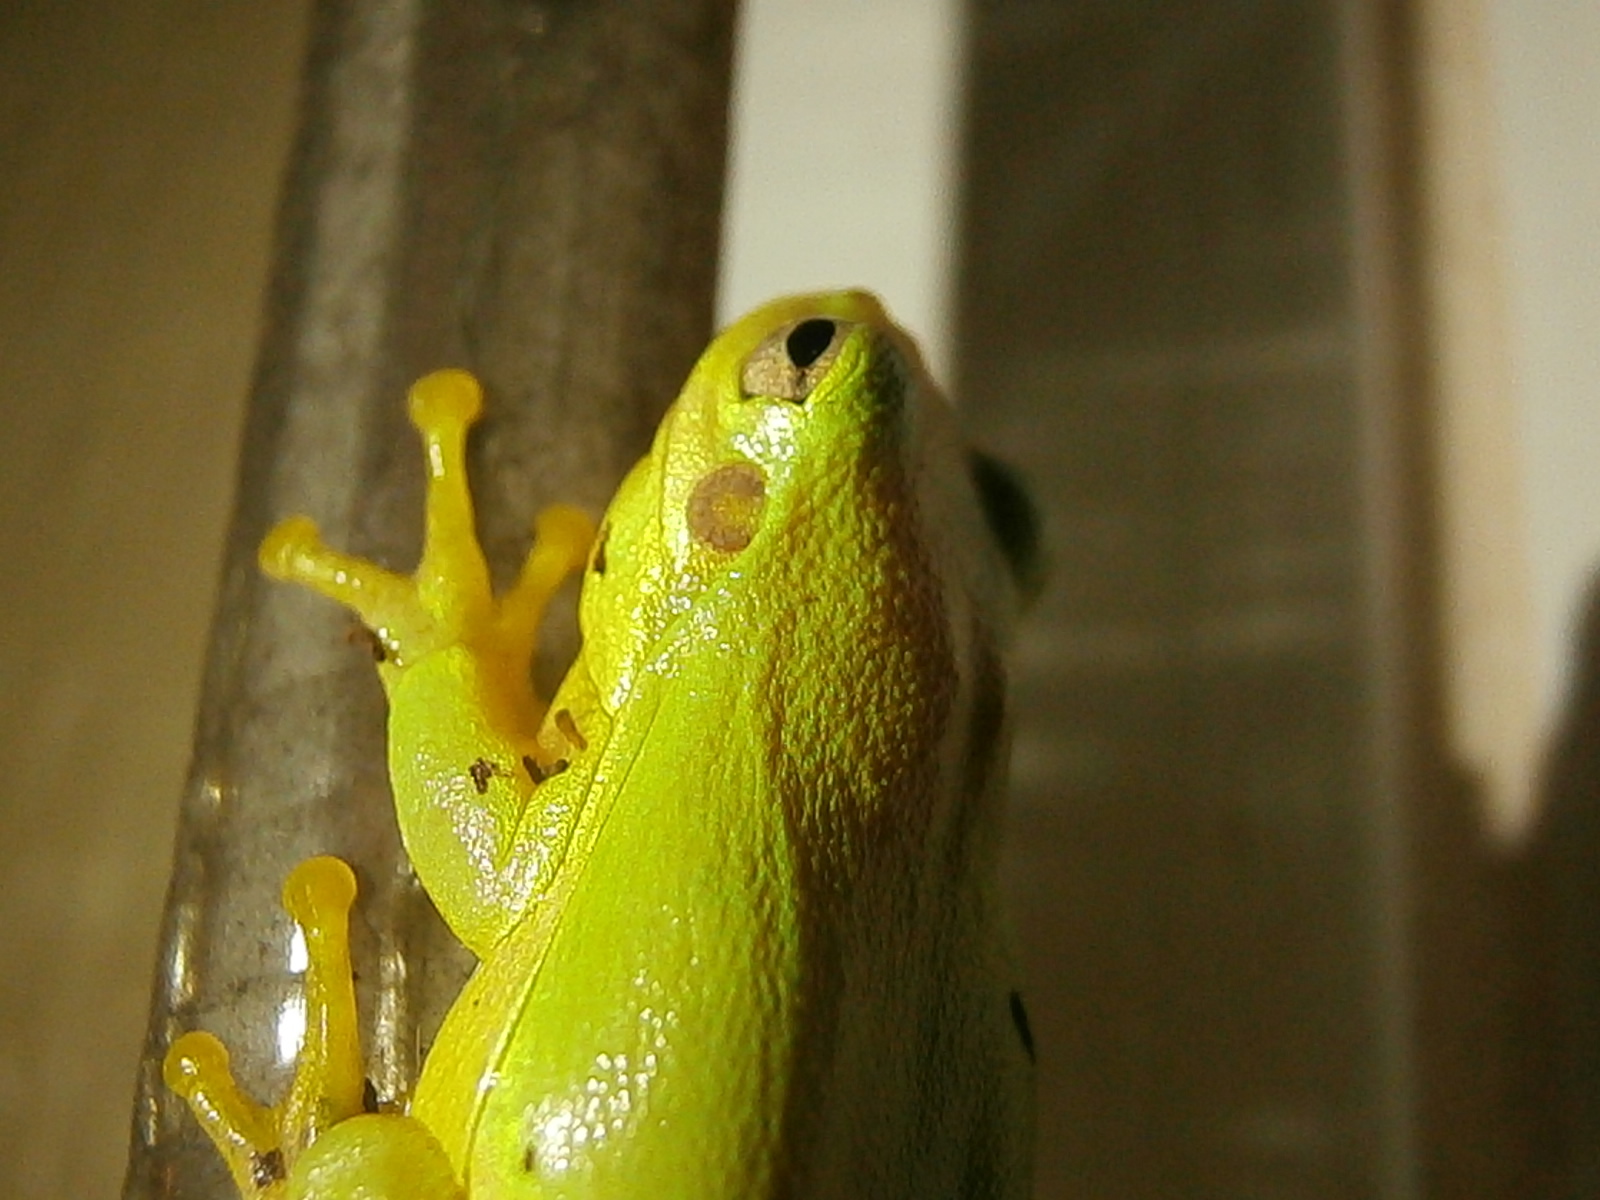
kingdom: Animalia
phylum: Chordata
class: Amphibia
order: Anura
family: Hylidae
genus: Hyla
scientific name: Hyla
